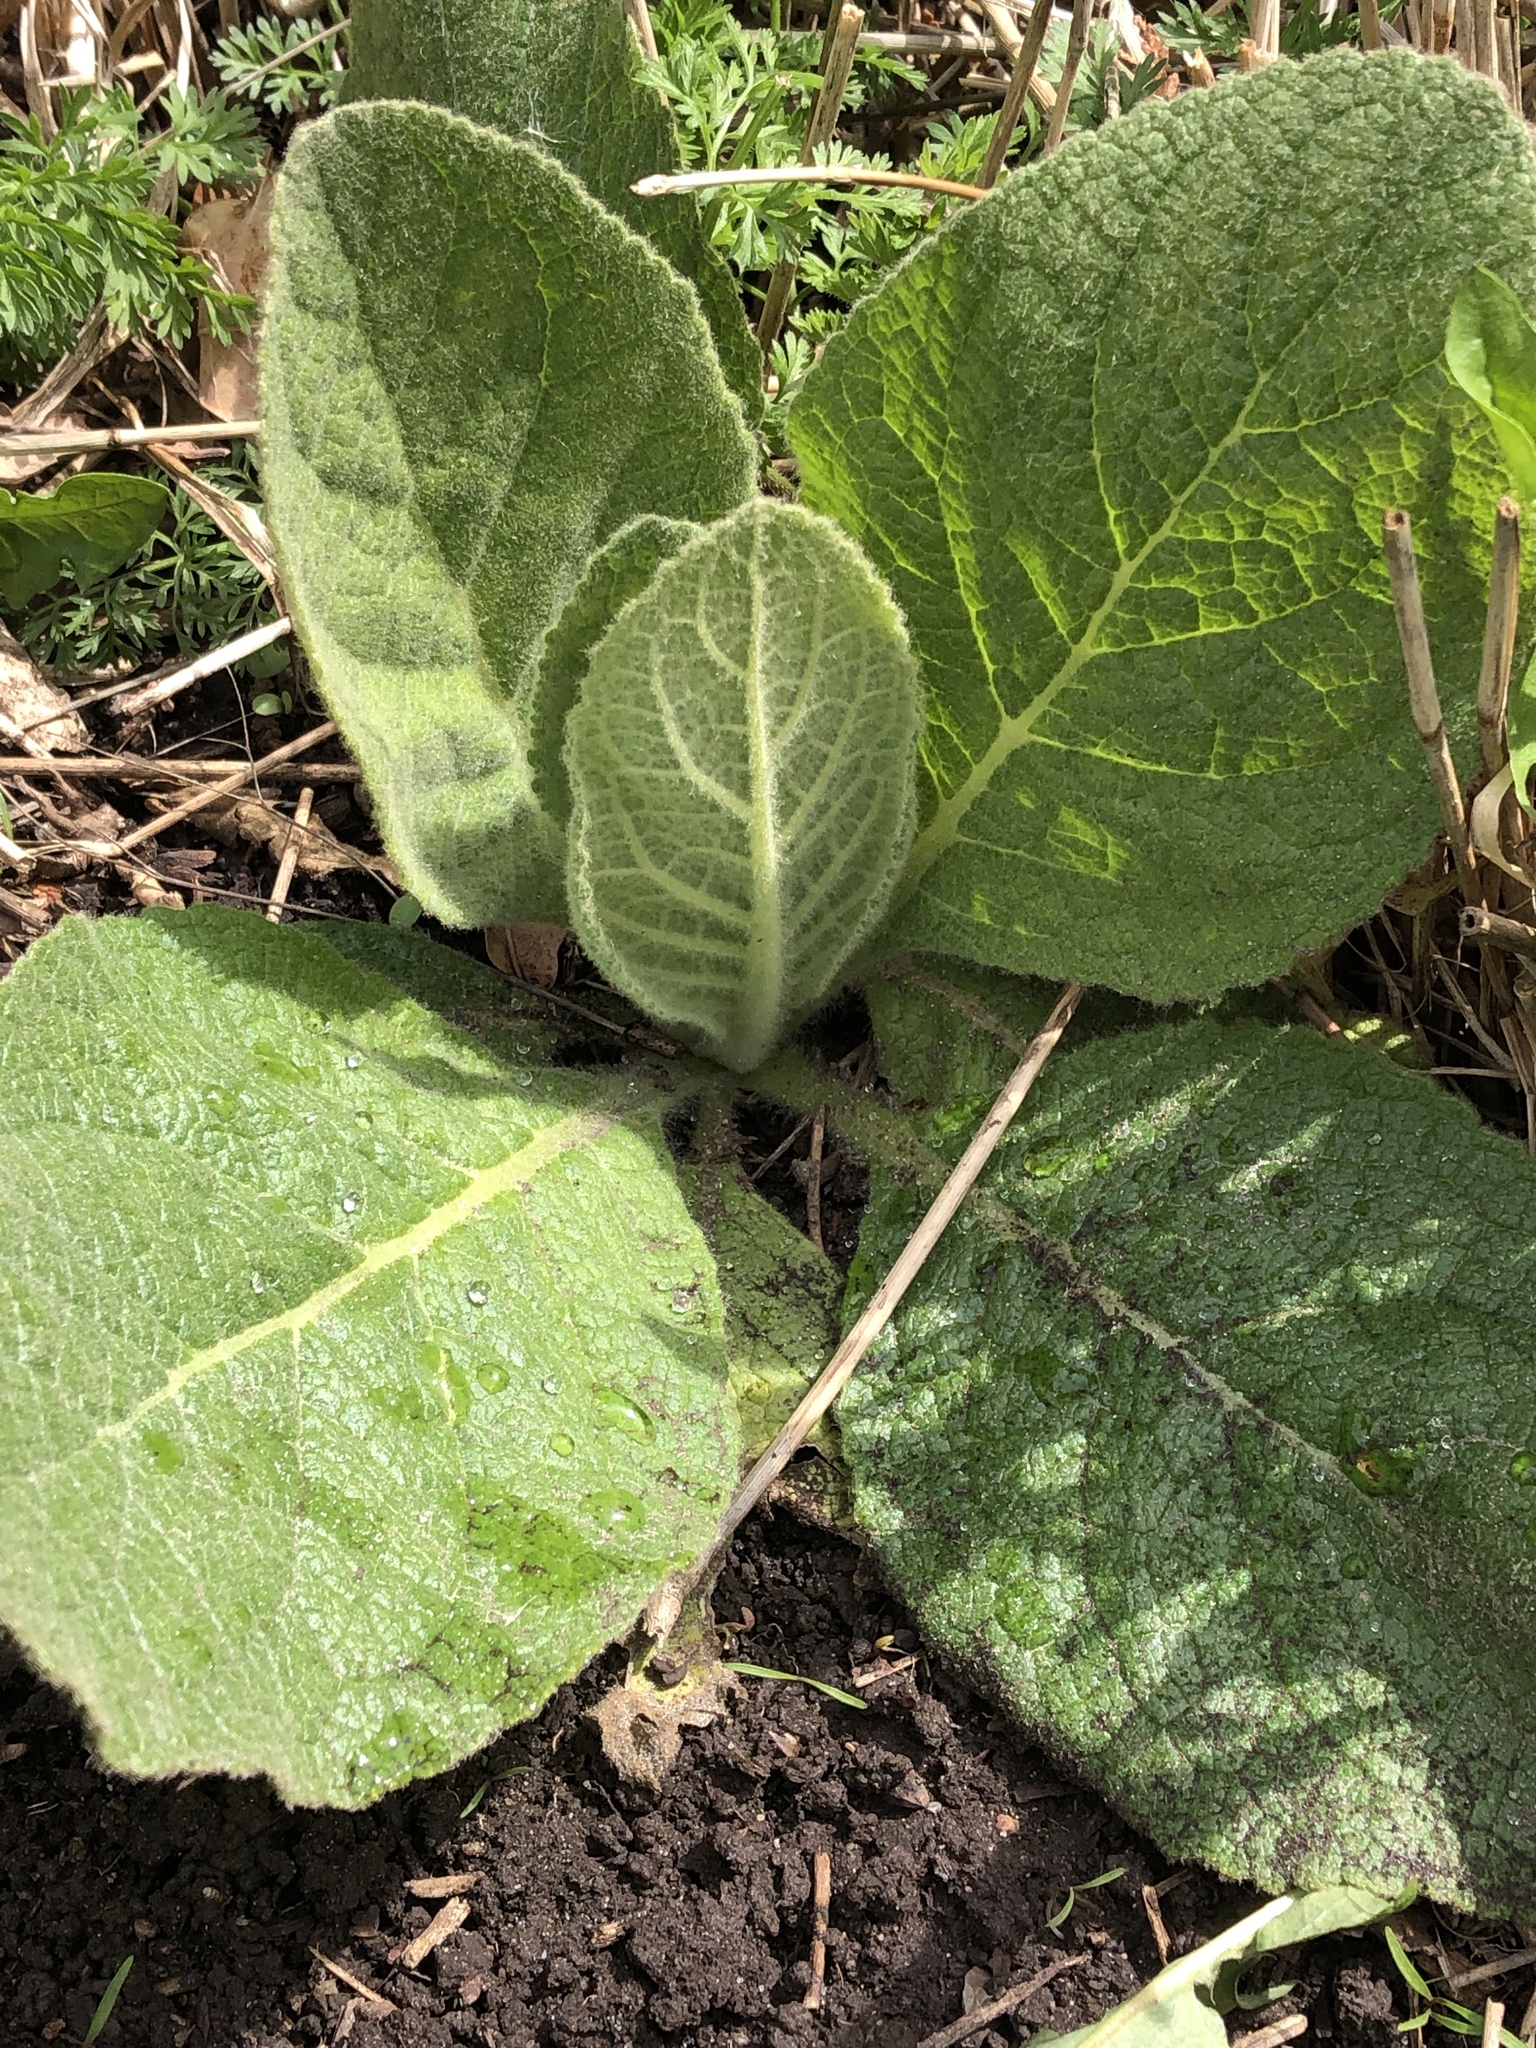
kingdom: Plantae
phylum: Tracheophyta
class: Magnoliopsida
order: Lamiales
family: Scrophulariaceae
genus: Verbascum
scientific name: Verbascum thapsus
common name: Common mullein
